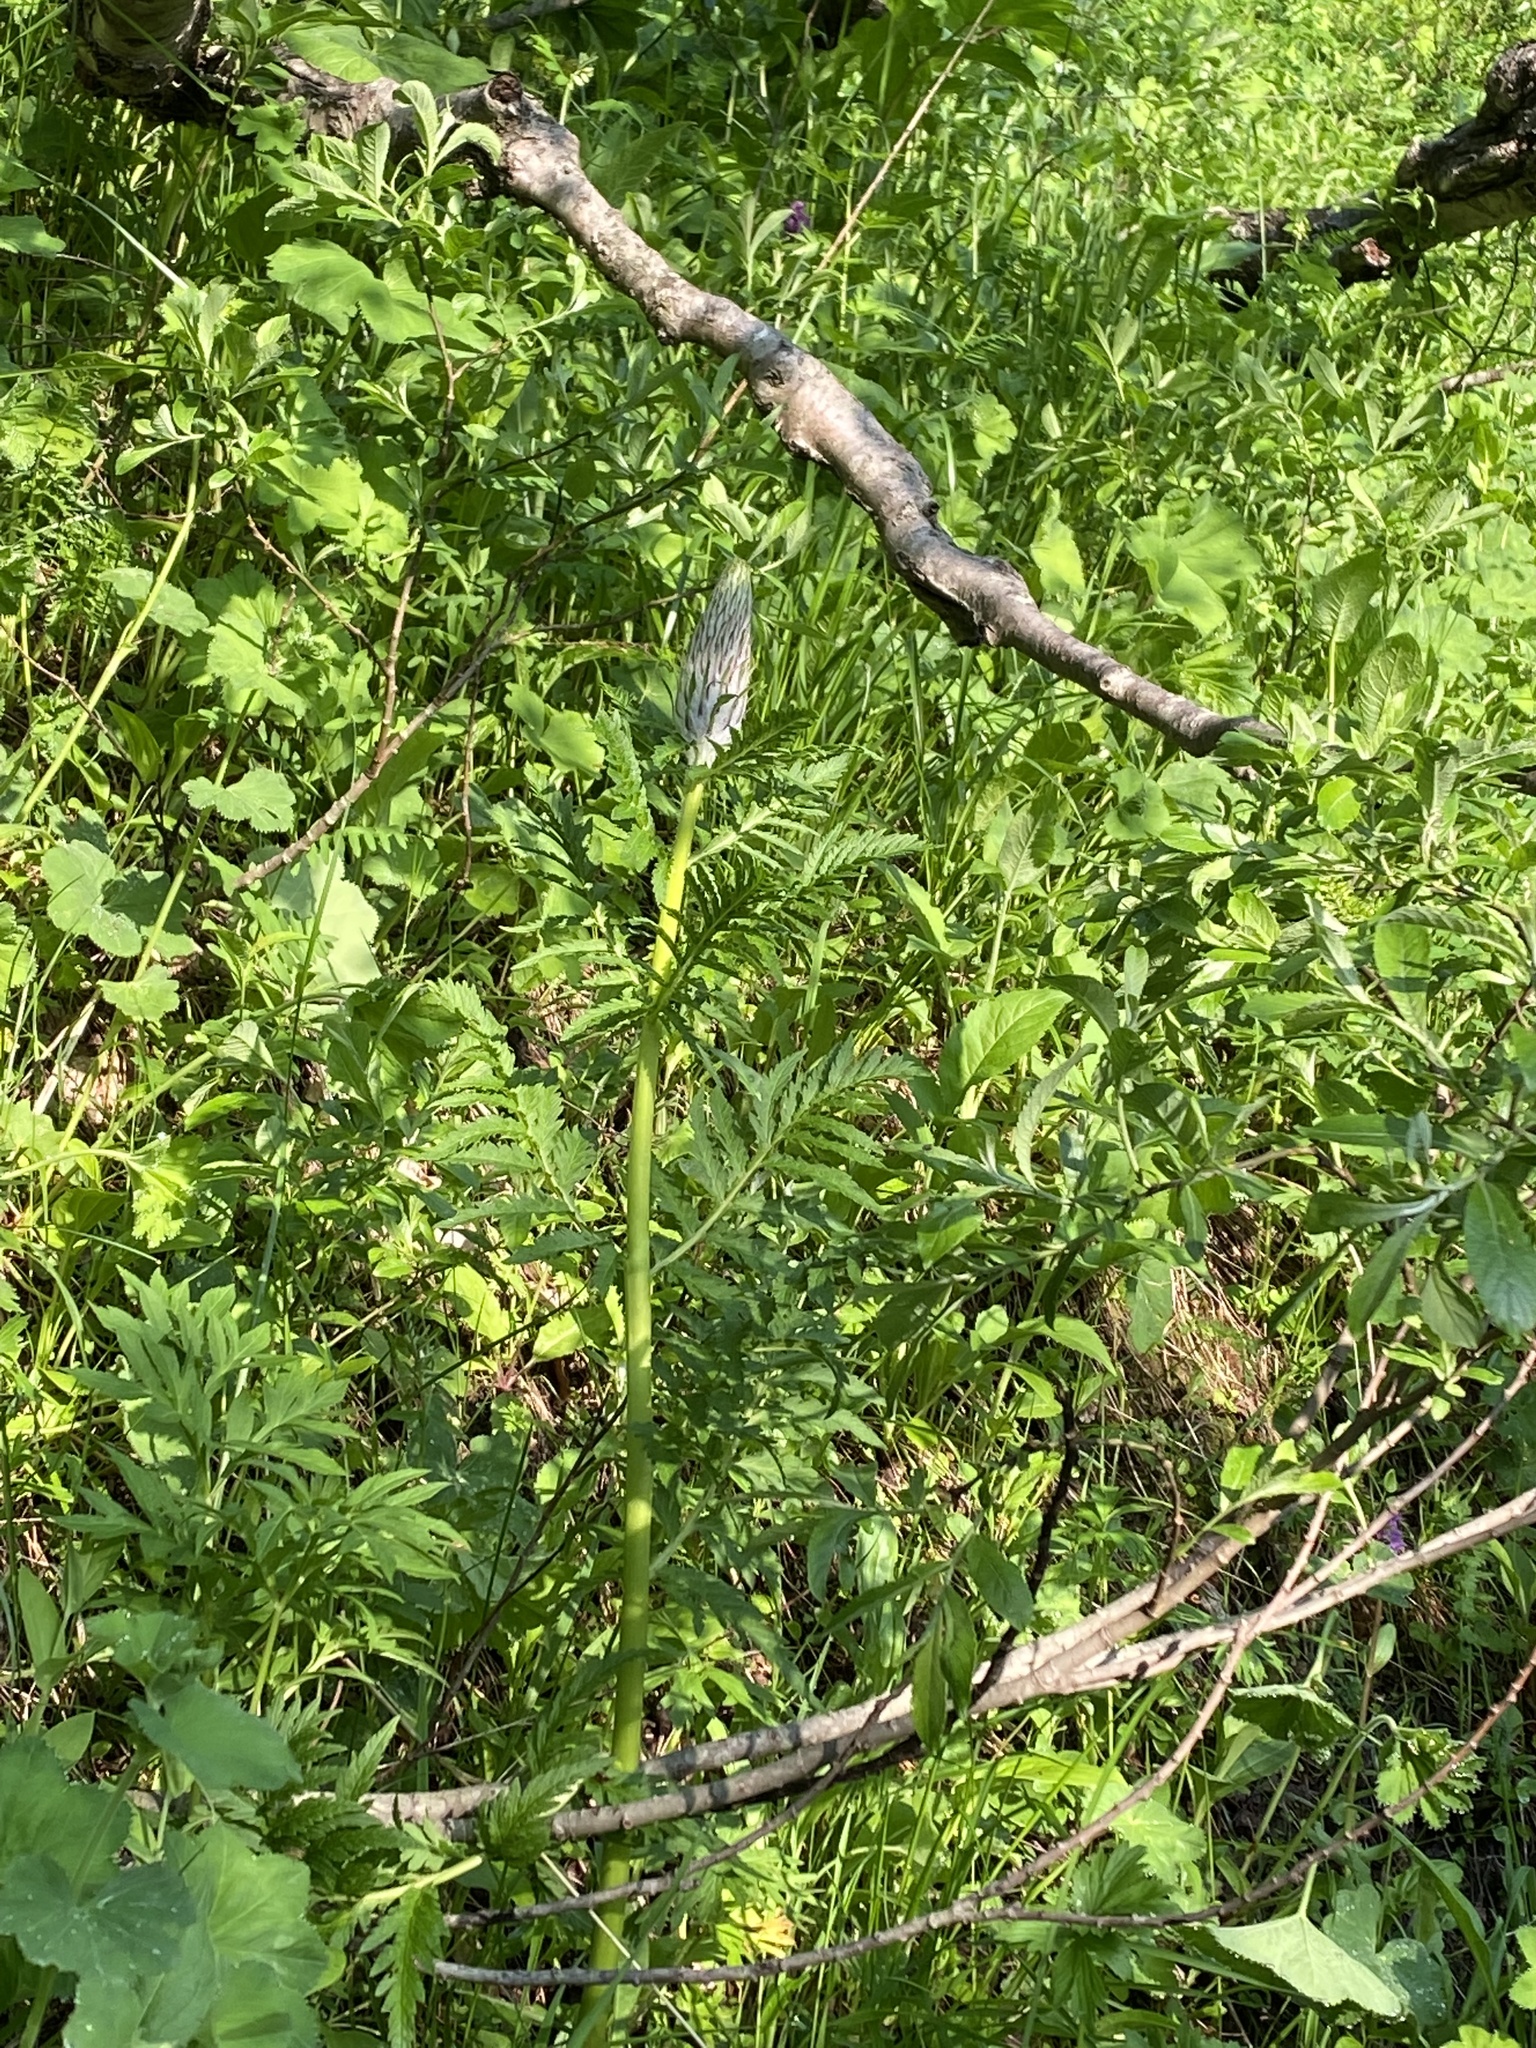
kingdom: Plantae
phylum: Tracheophyta
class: Magnoliopsida
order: Lamiales
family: Orobanchaceae
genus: Pedicularis
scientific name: Pedicularis atropurpurea
